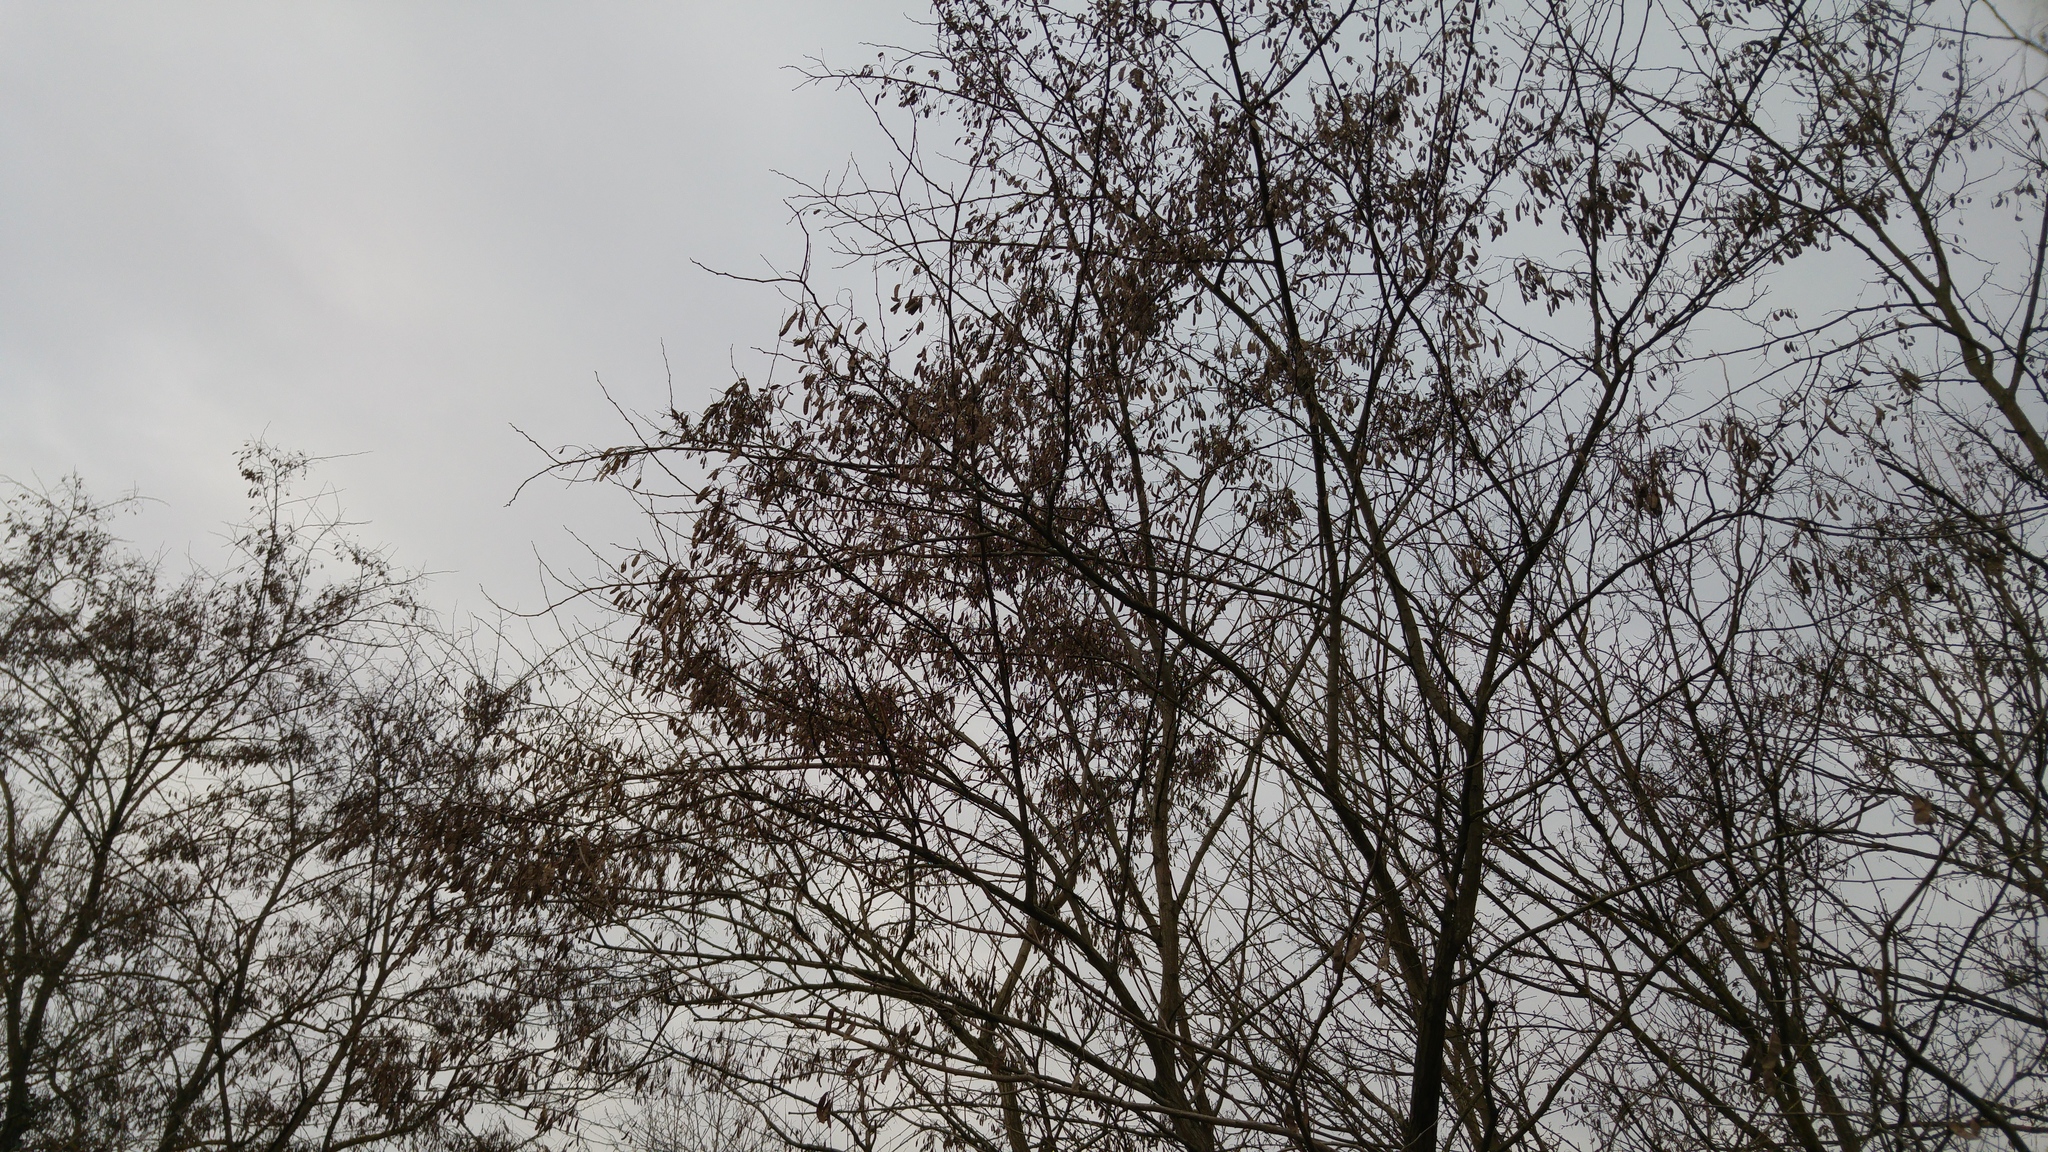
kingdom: Plantae
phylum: Tracheophyta
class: Magnoliopsida
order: Fabales
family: Fabaceae
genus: Robinia
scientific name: Robinia pseudoacacia
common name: Black locust
